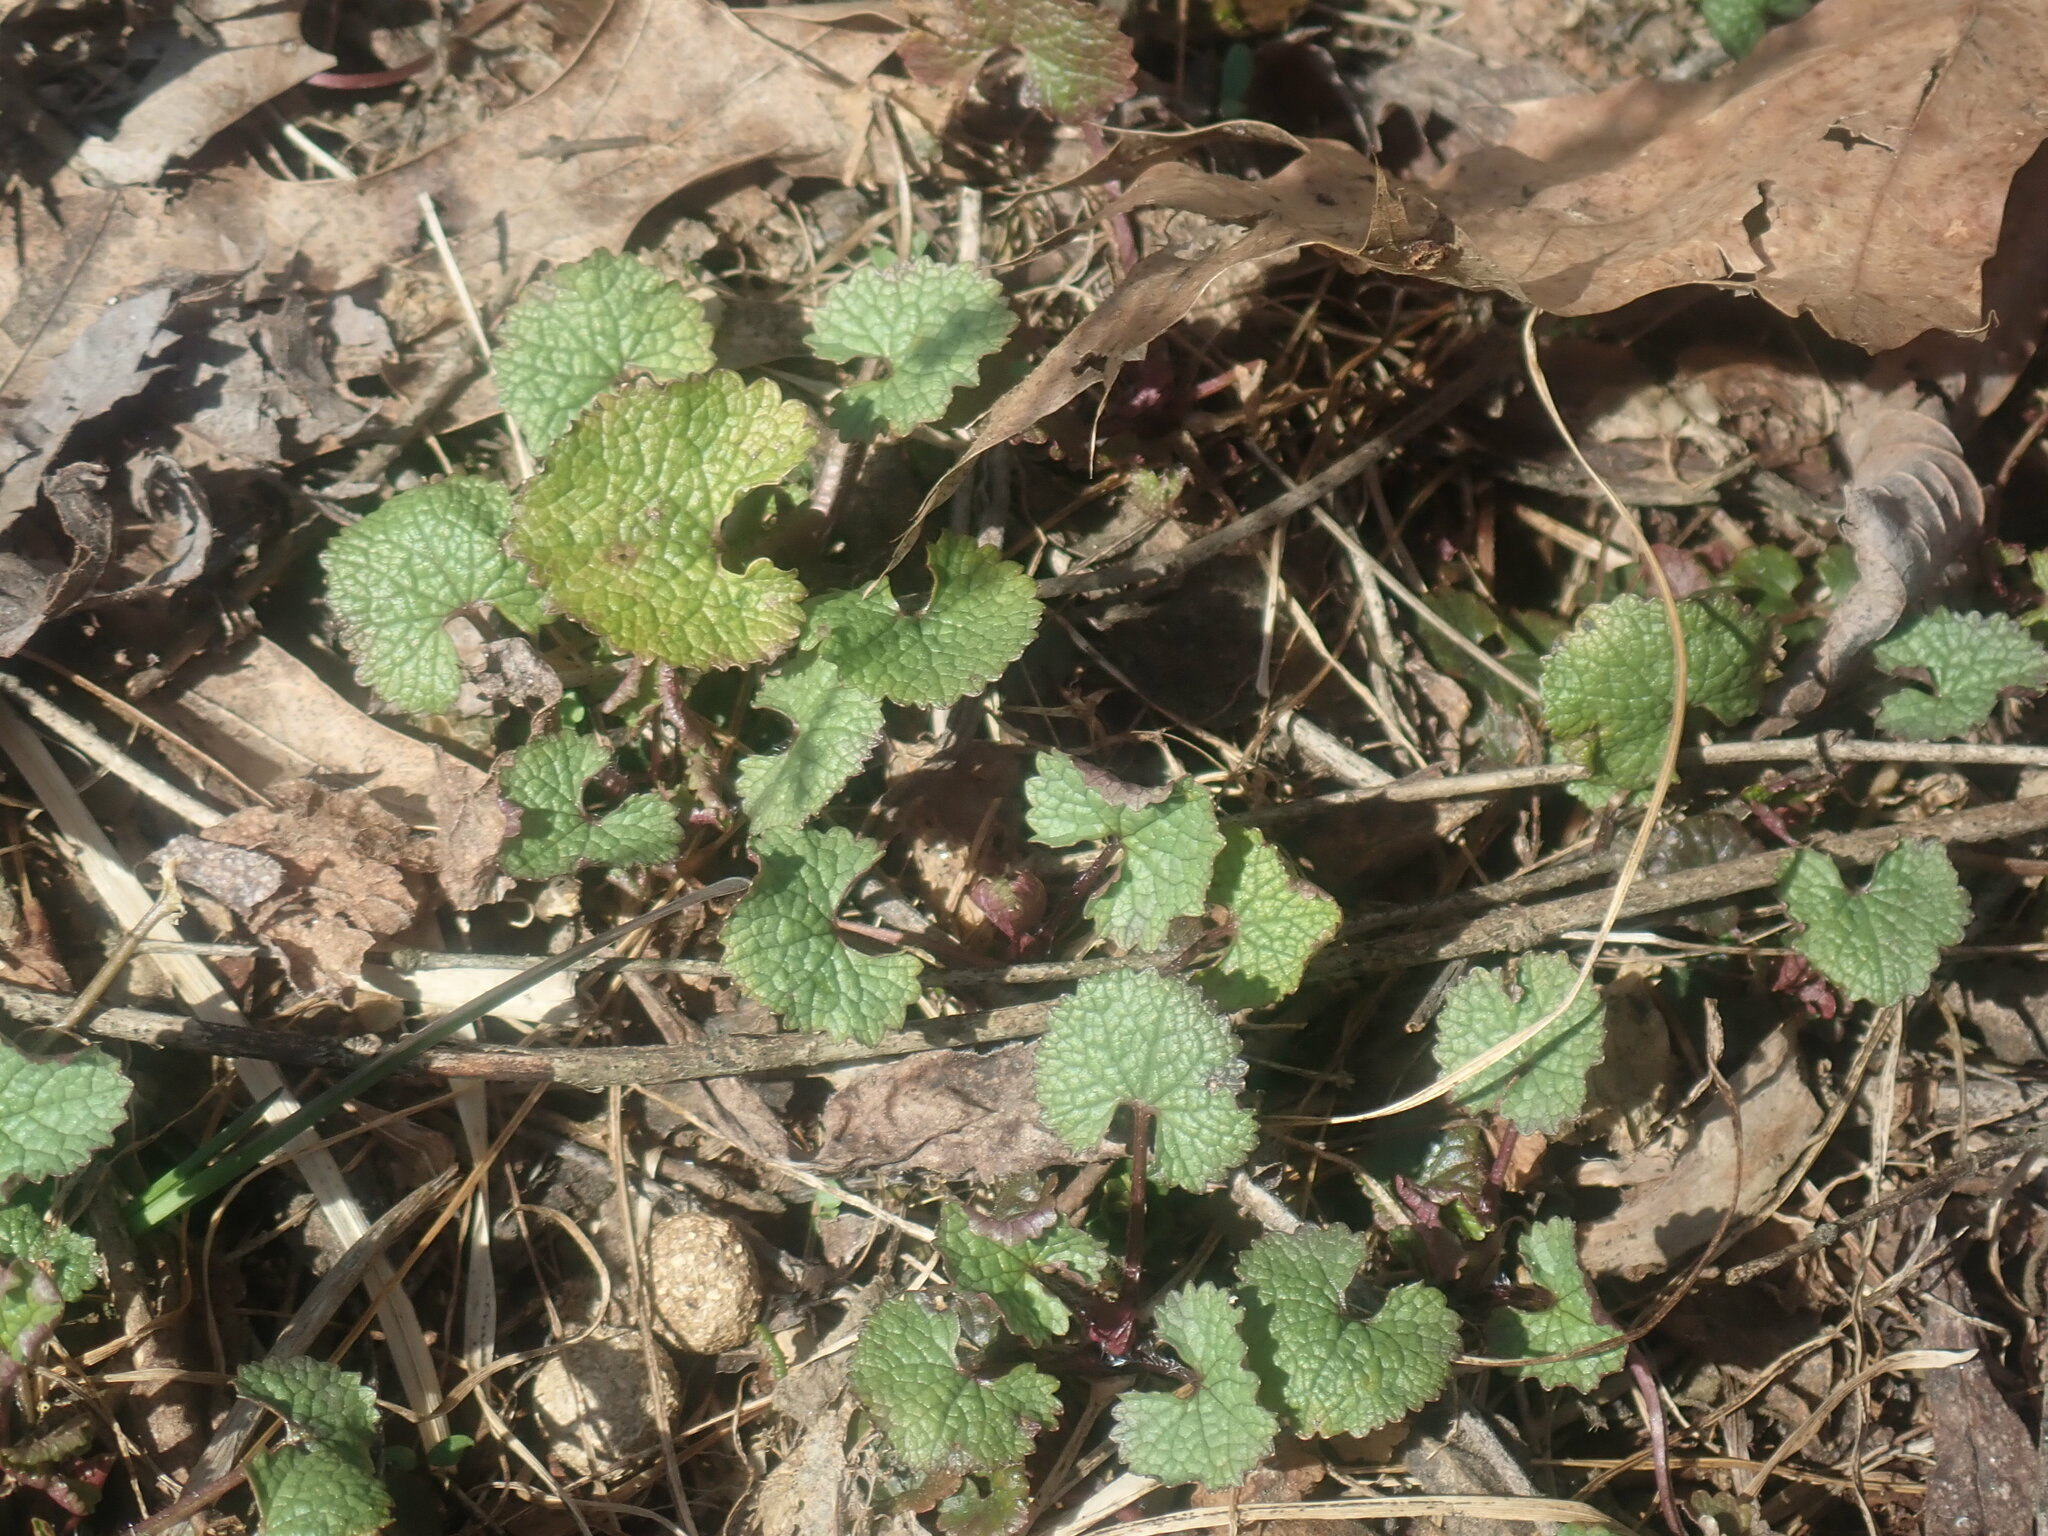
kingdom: Plantae
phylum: Tracheophyta
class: Magnoliopsida
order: Brassicales
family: Brassicaceae
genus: Alliaria
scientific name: Alliaria petiolata
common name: Garlic mustard
